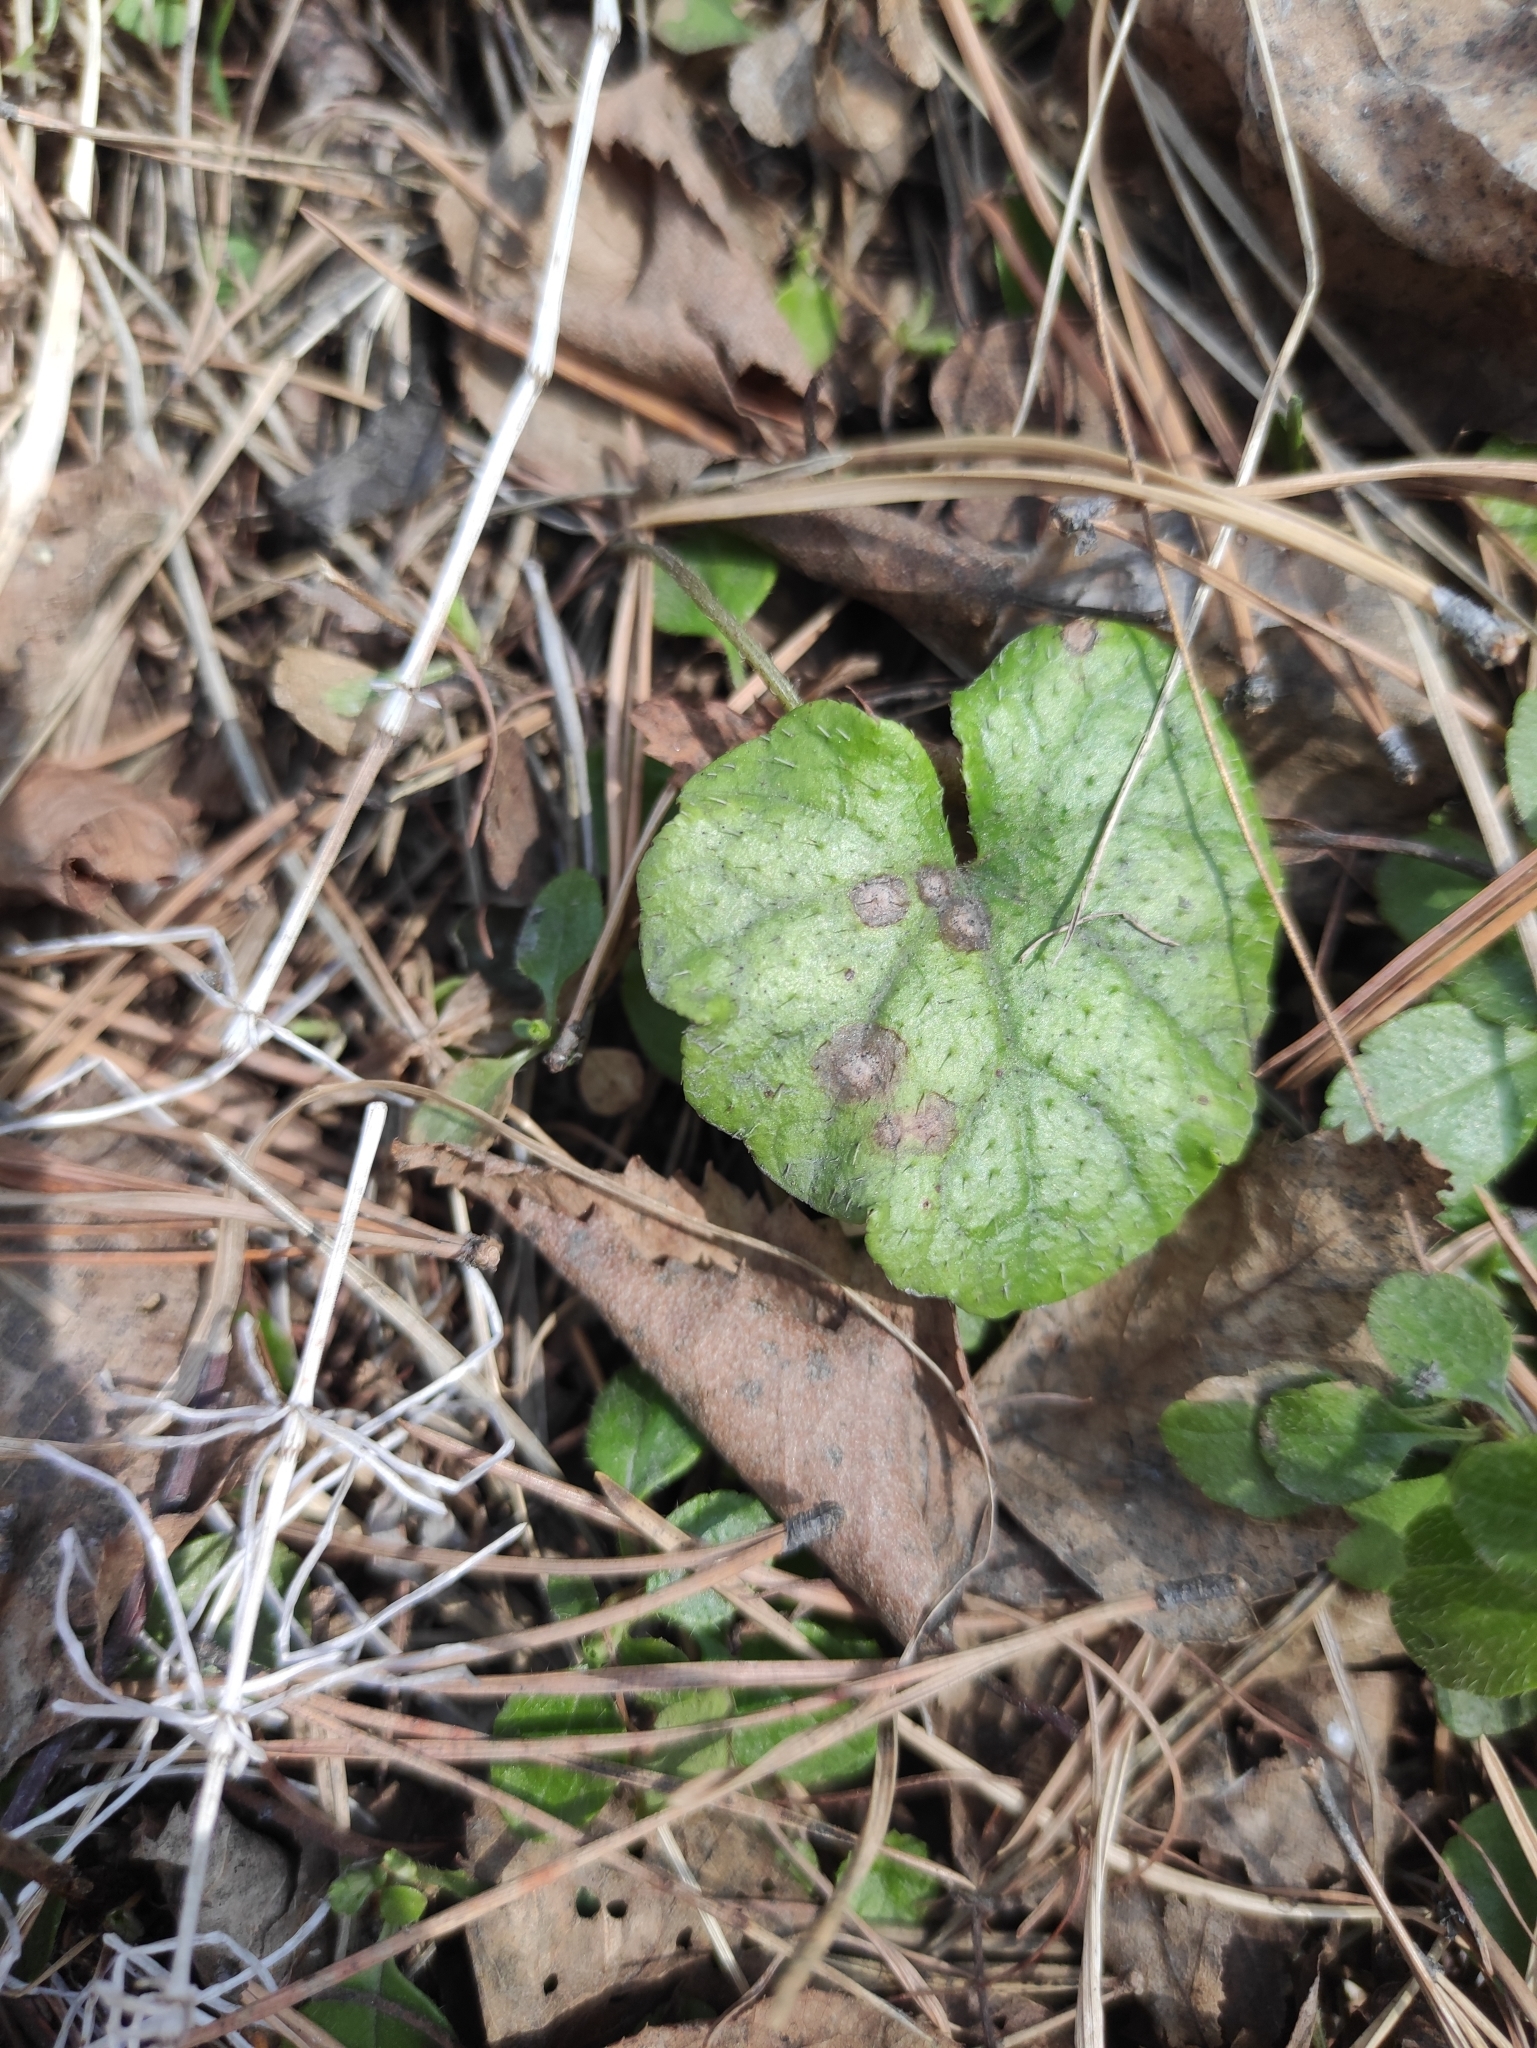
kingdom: Plantae
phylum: Tracheophyta
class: Magnoliopsida
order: Saxifragales
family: Saxifragaceae
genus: Mitella
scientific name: Mitella nuda
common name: Bare-stemmed bishop's-cap
